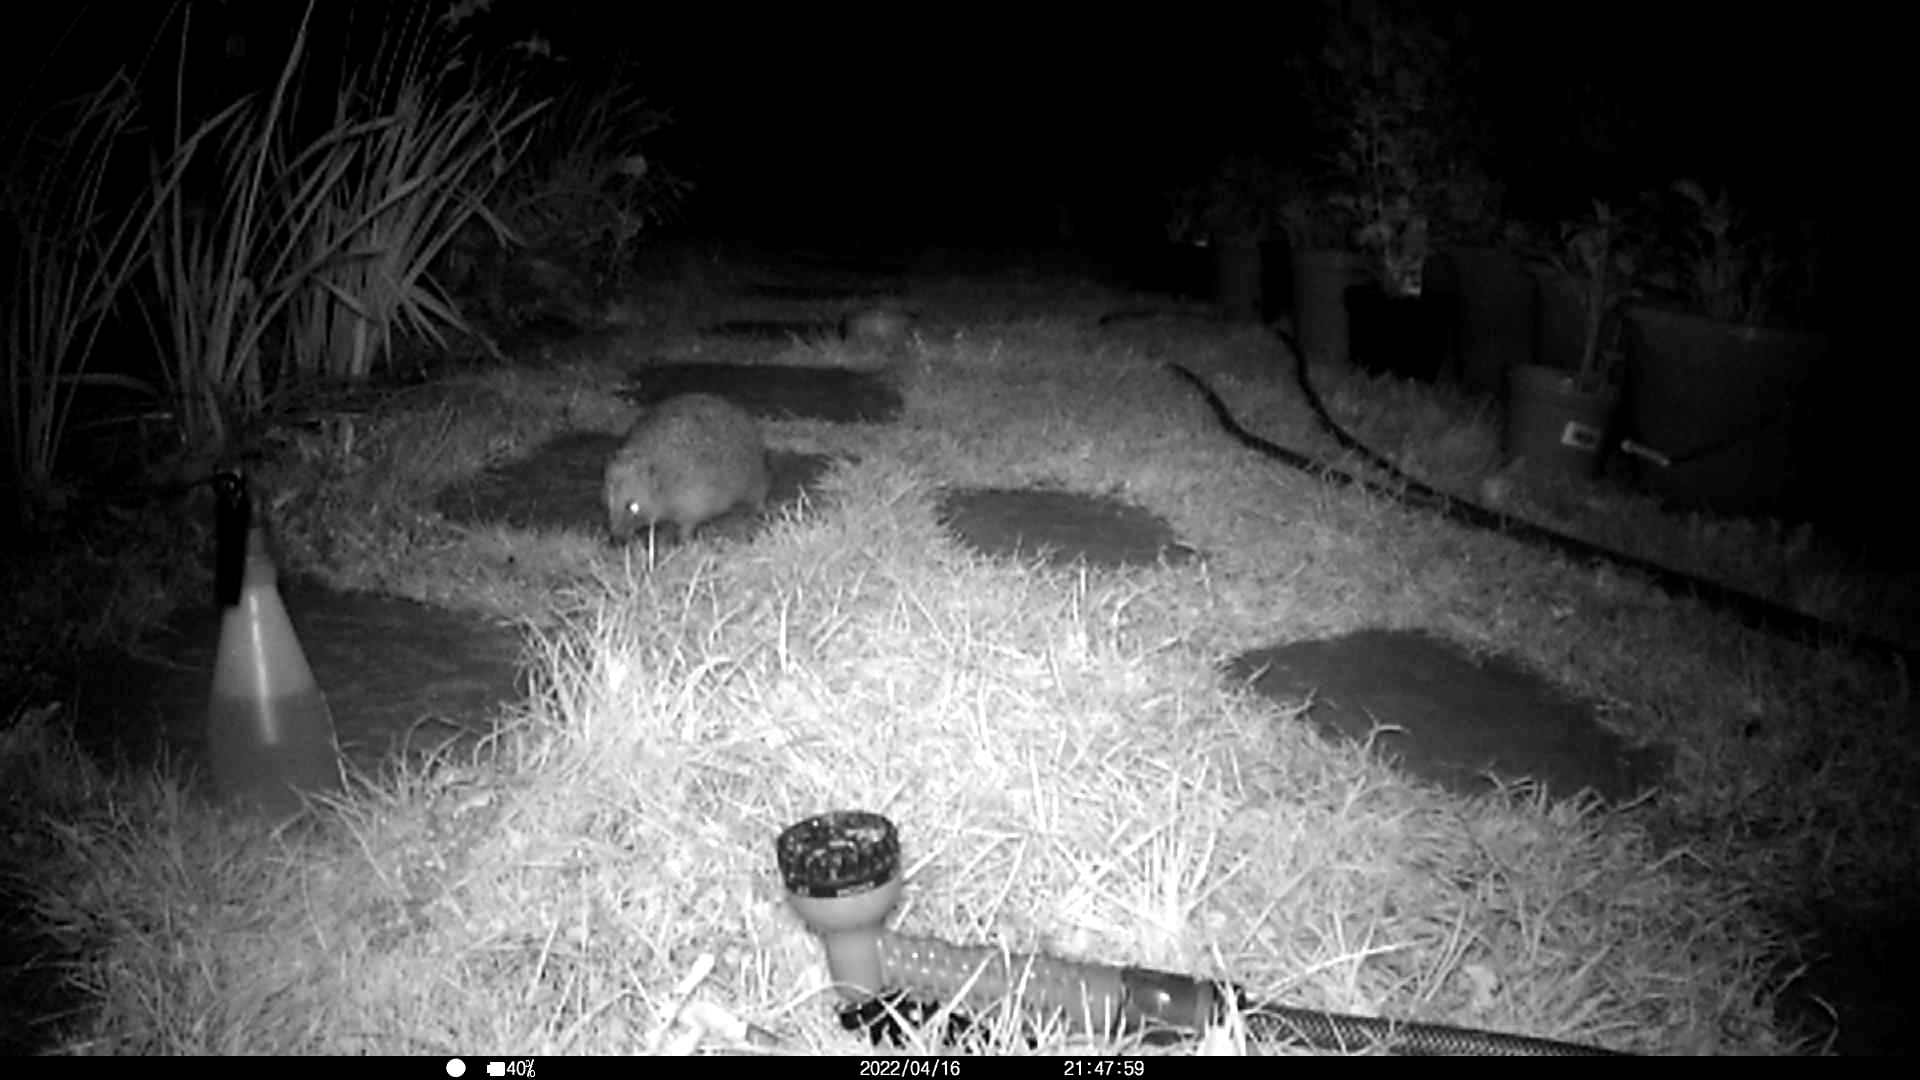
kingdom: Animalia
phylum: Chordata
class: Mammalia
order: Erinaceomorpha
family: Erinaceidae
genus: Erinaceus
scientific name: Erinaceus europaeus
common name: West european hedgehog
